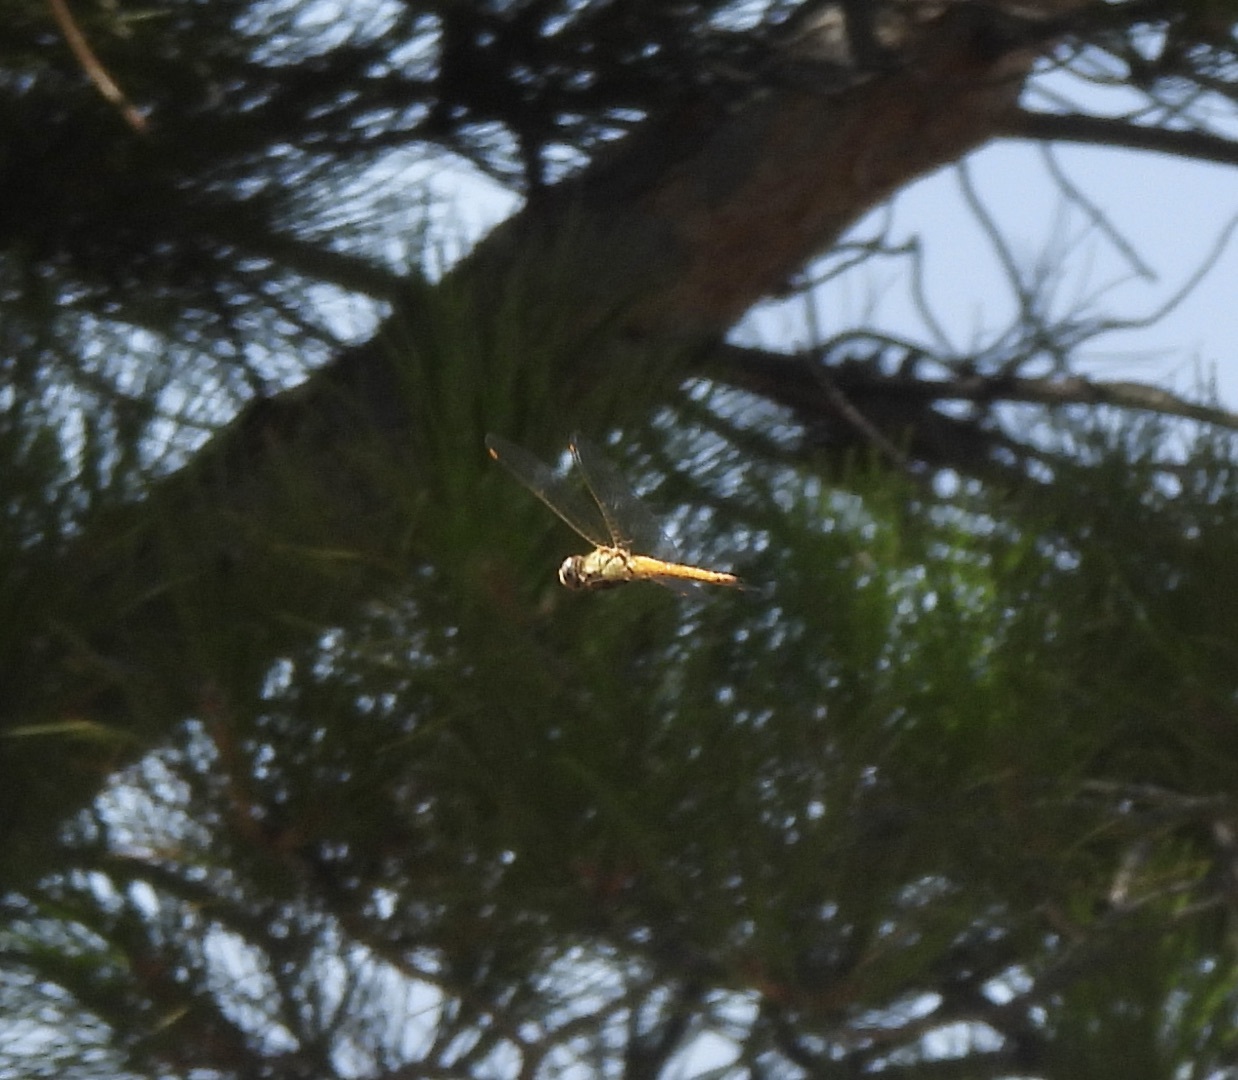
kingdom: Animalia
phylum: Arthropoda
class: Insecta
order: Odonata
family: Libellulidae
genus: Pantala
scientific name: Pantala flavescens
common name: Wandering glider
